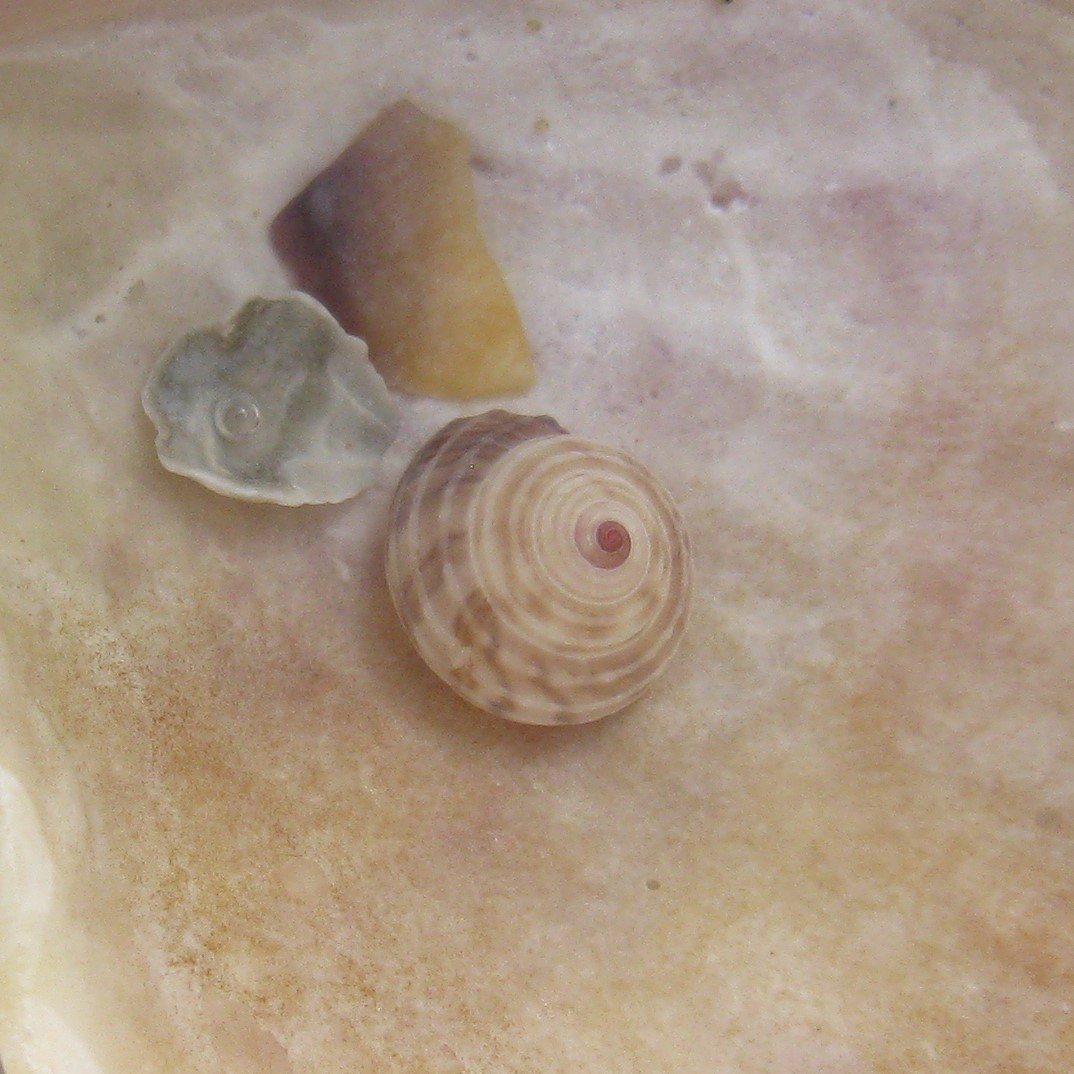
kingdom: Animalia
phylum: Mollusca
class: Gastropoda
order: Trochida
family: Trochidae
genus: Antisolarium
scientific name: Antisolarium egenum
